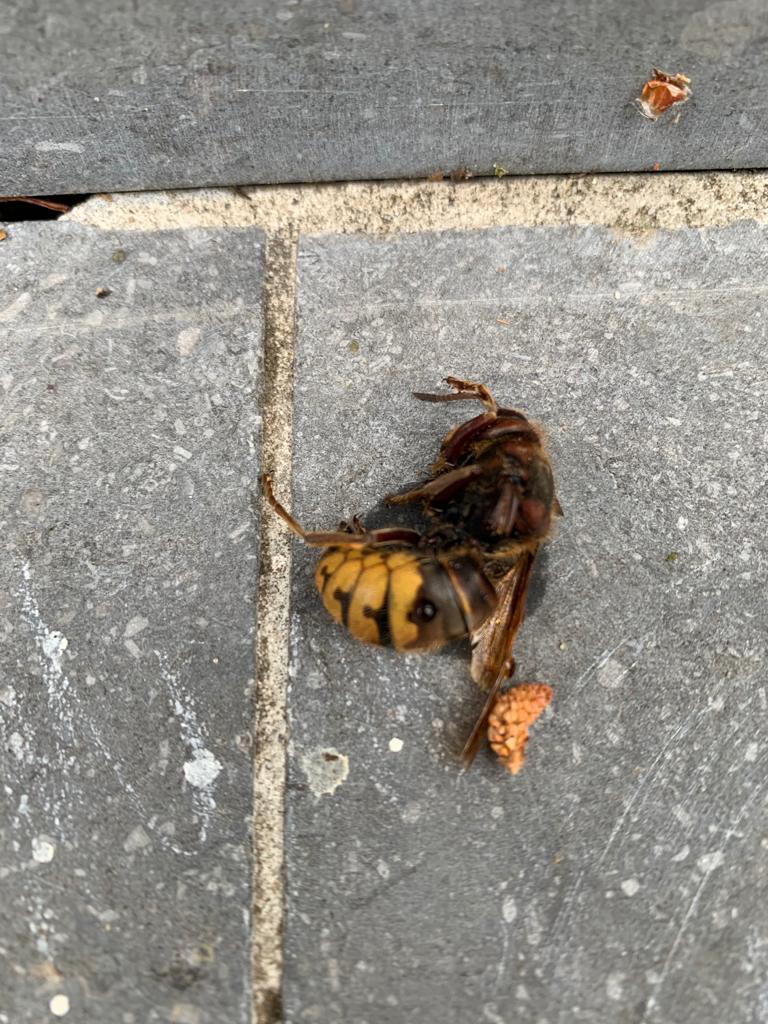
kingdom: Animalia
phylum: Arthropoda
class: Insecta
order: Hymenoptera
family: Vespidae
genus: Vespa
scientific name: Vespa crabro
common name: Hornet
